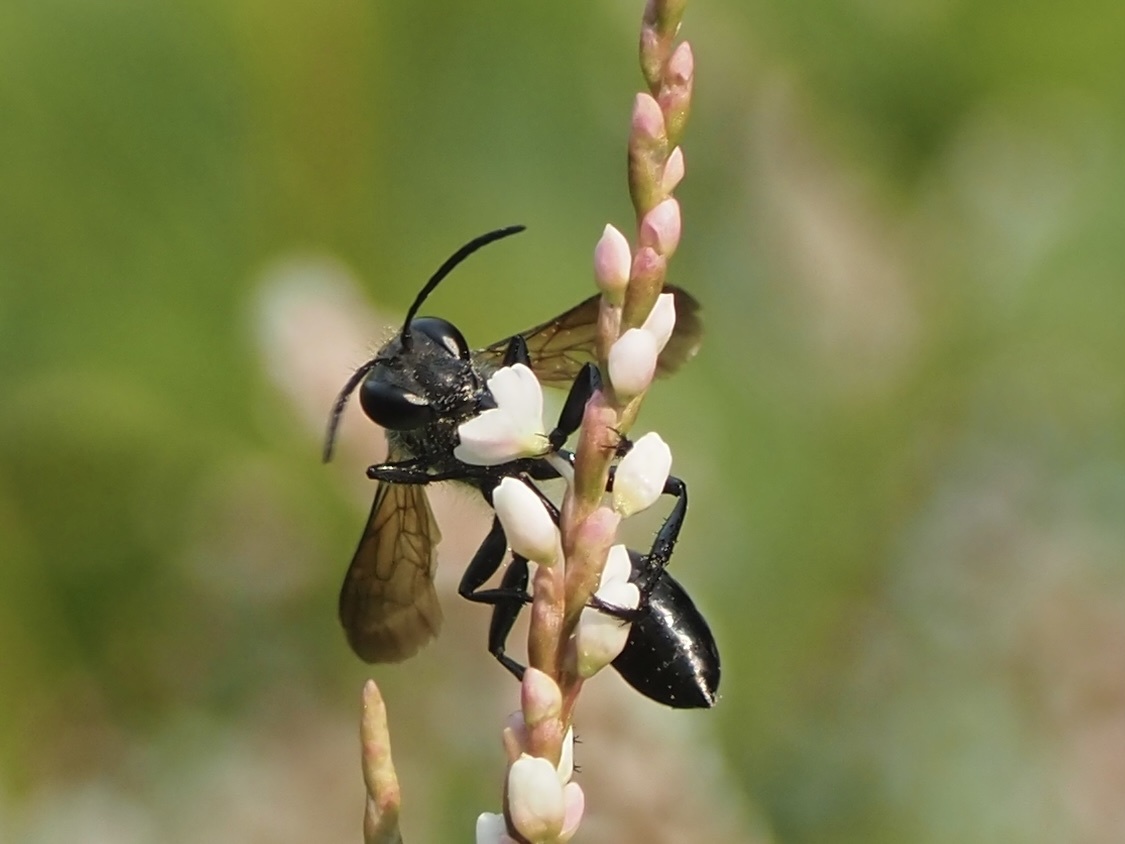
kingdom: Animalia
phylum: Arthropoda
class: Insecta
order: Hymenoptera
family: Sphecidae
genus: Isodontia
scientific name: Isodontia mexicana
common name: Mud dauber
